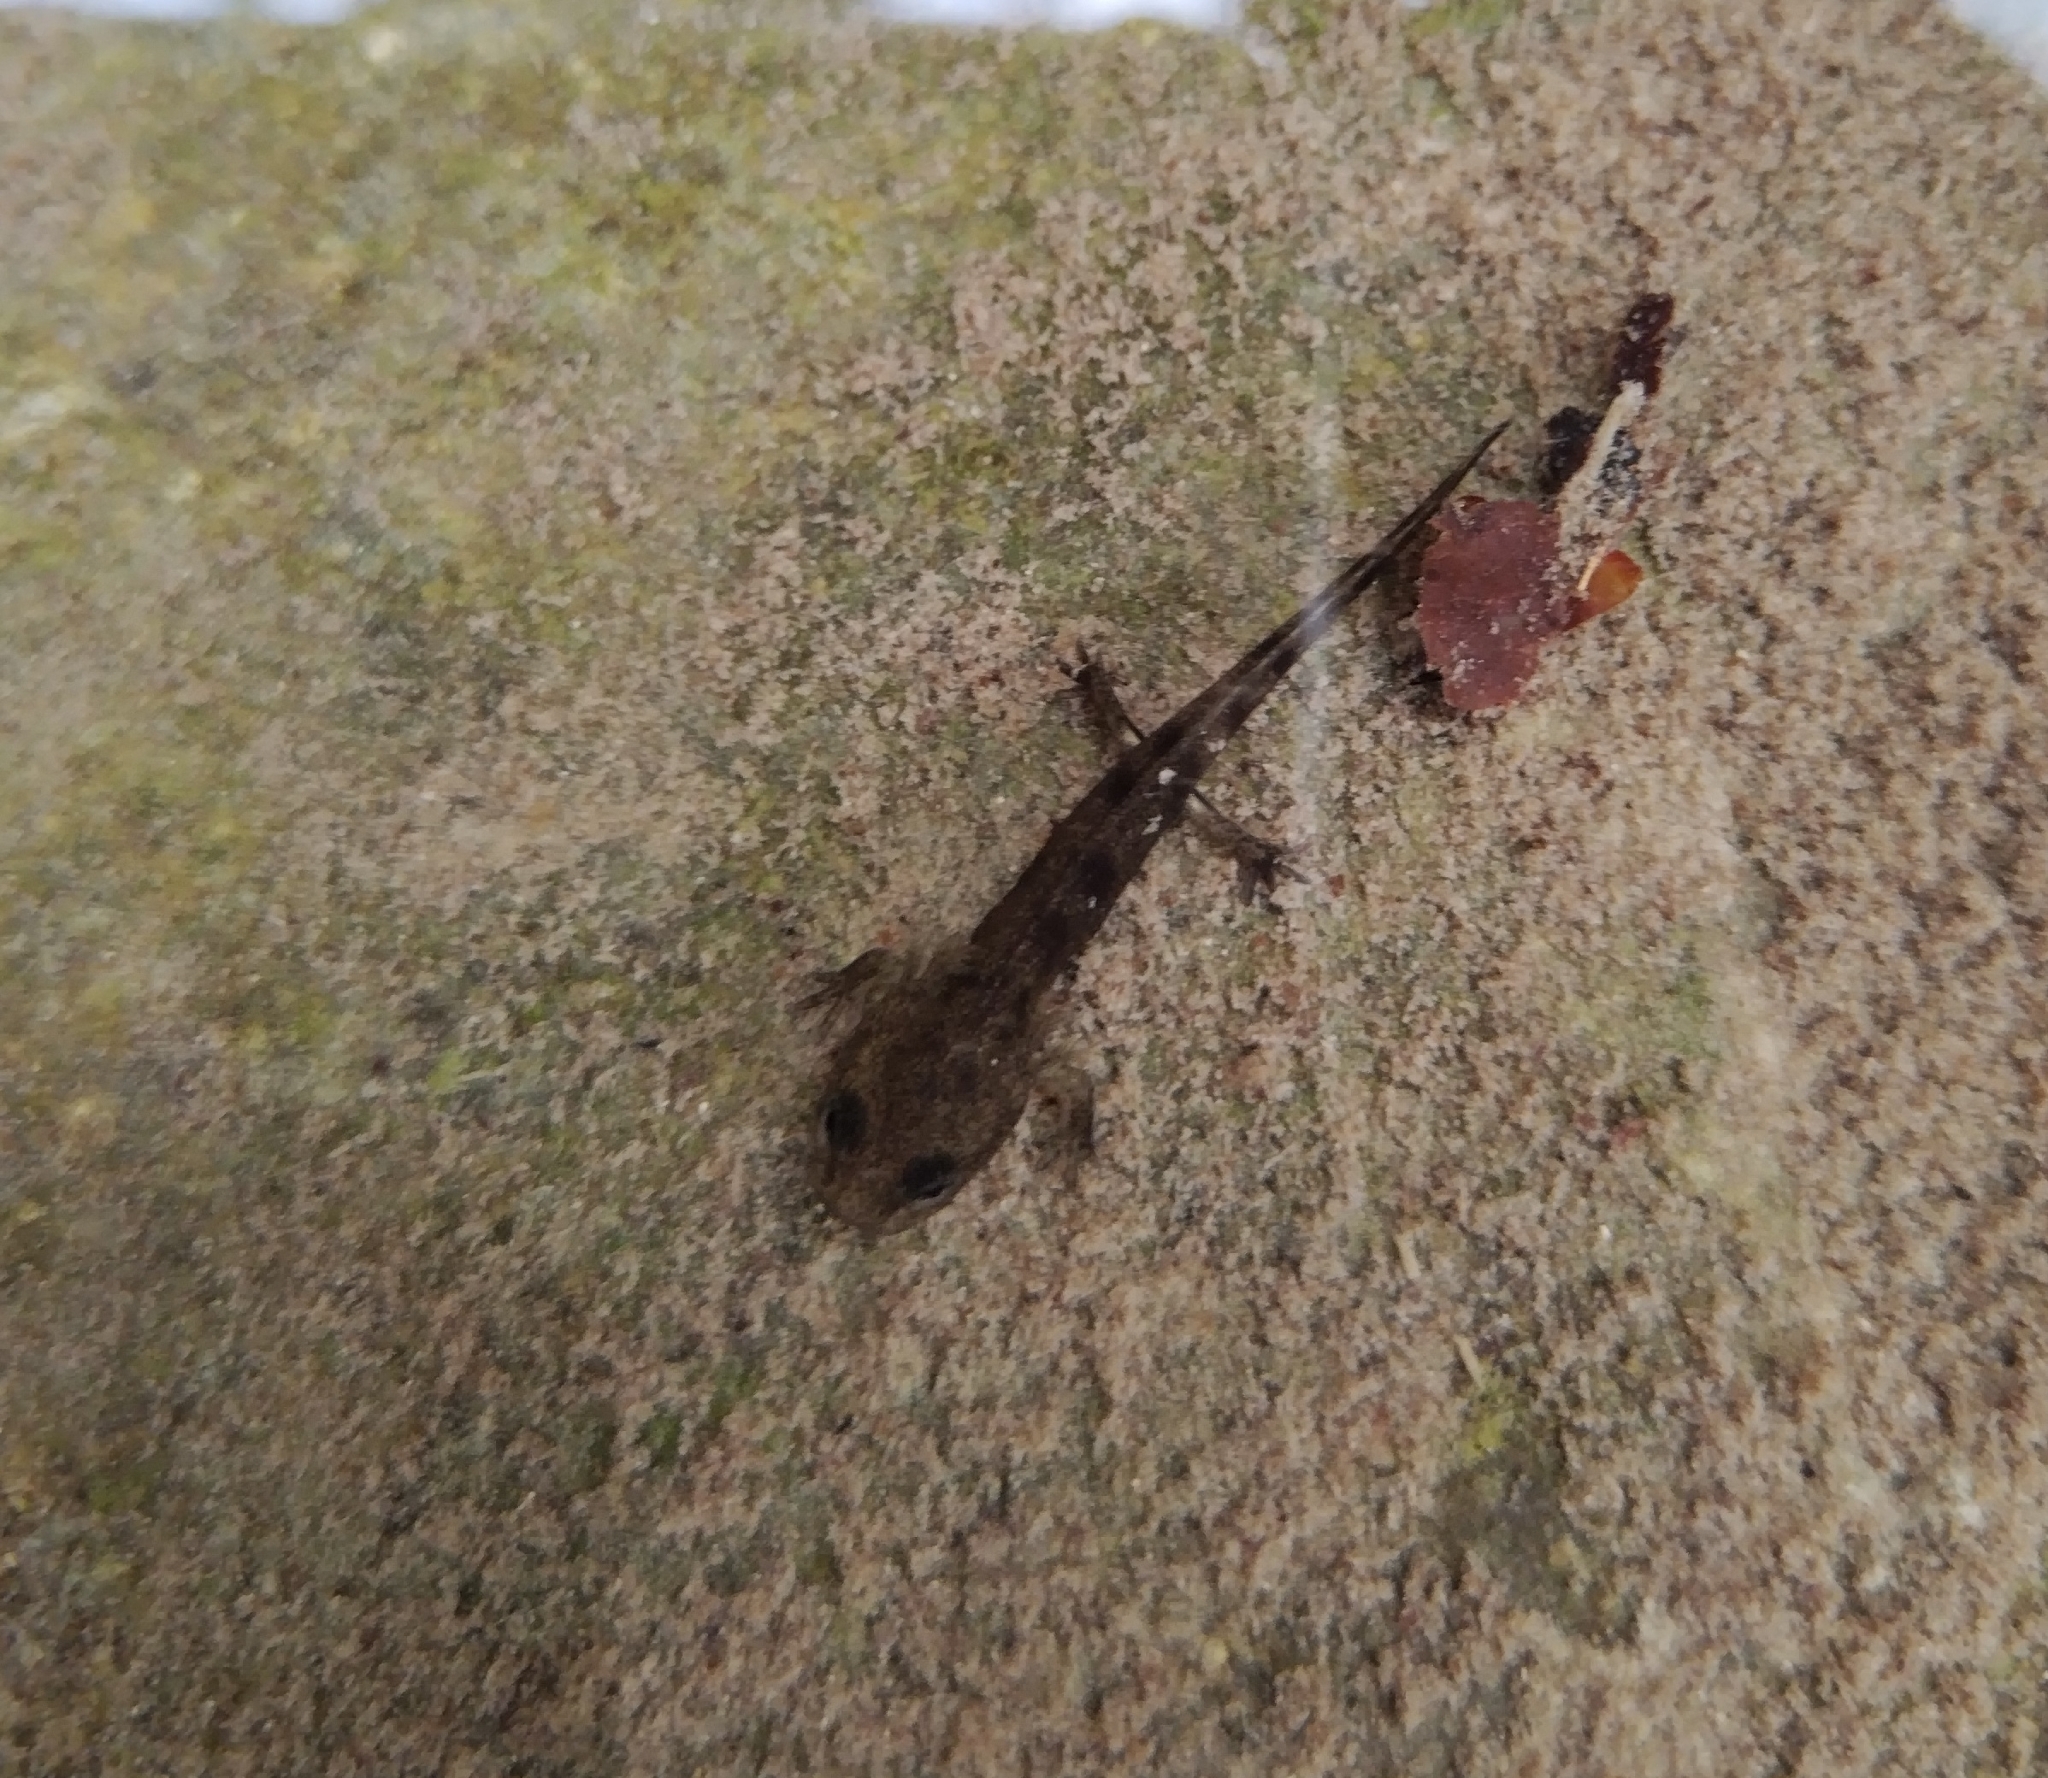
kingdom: Animalia
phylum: Chordata
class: Amphibia
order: Caudata
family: Salamandridae
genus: Salamandra
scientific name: Salamandra salamandra
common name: Fire salamander
